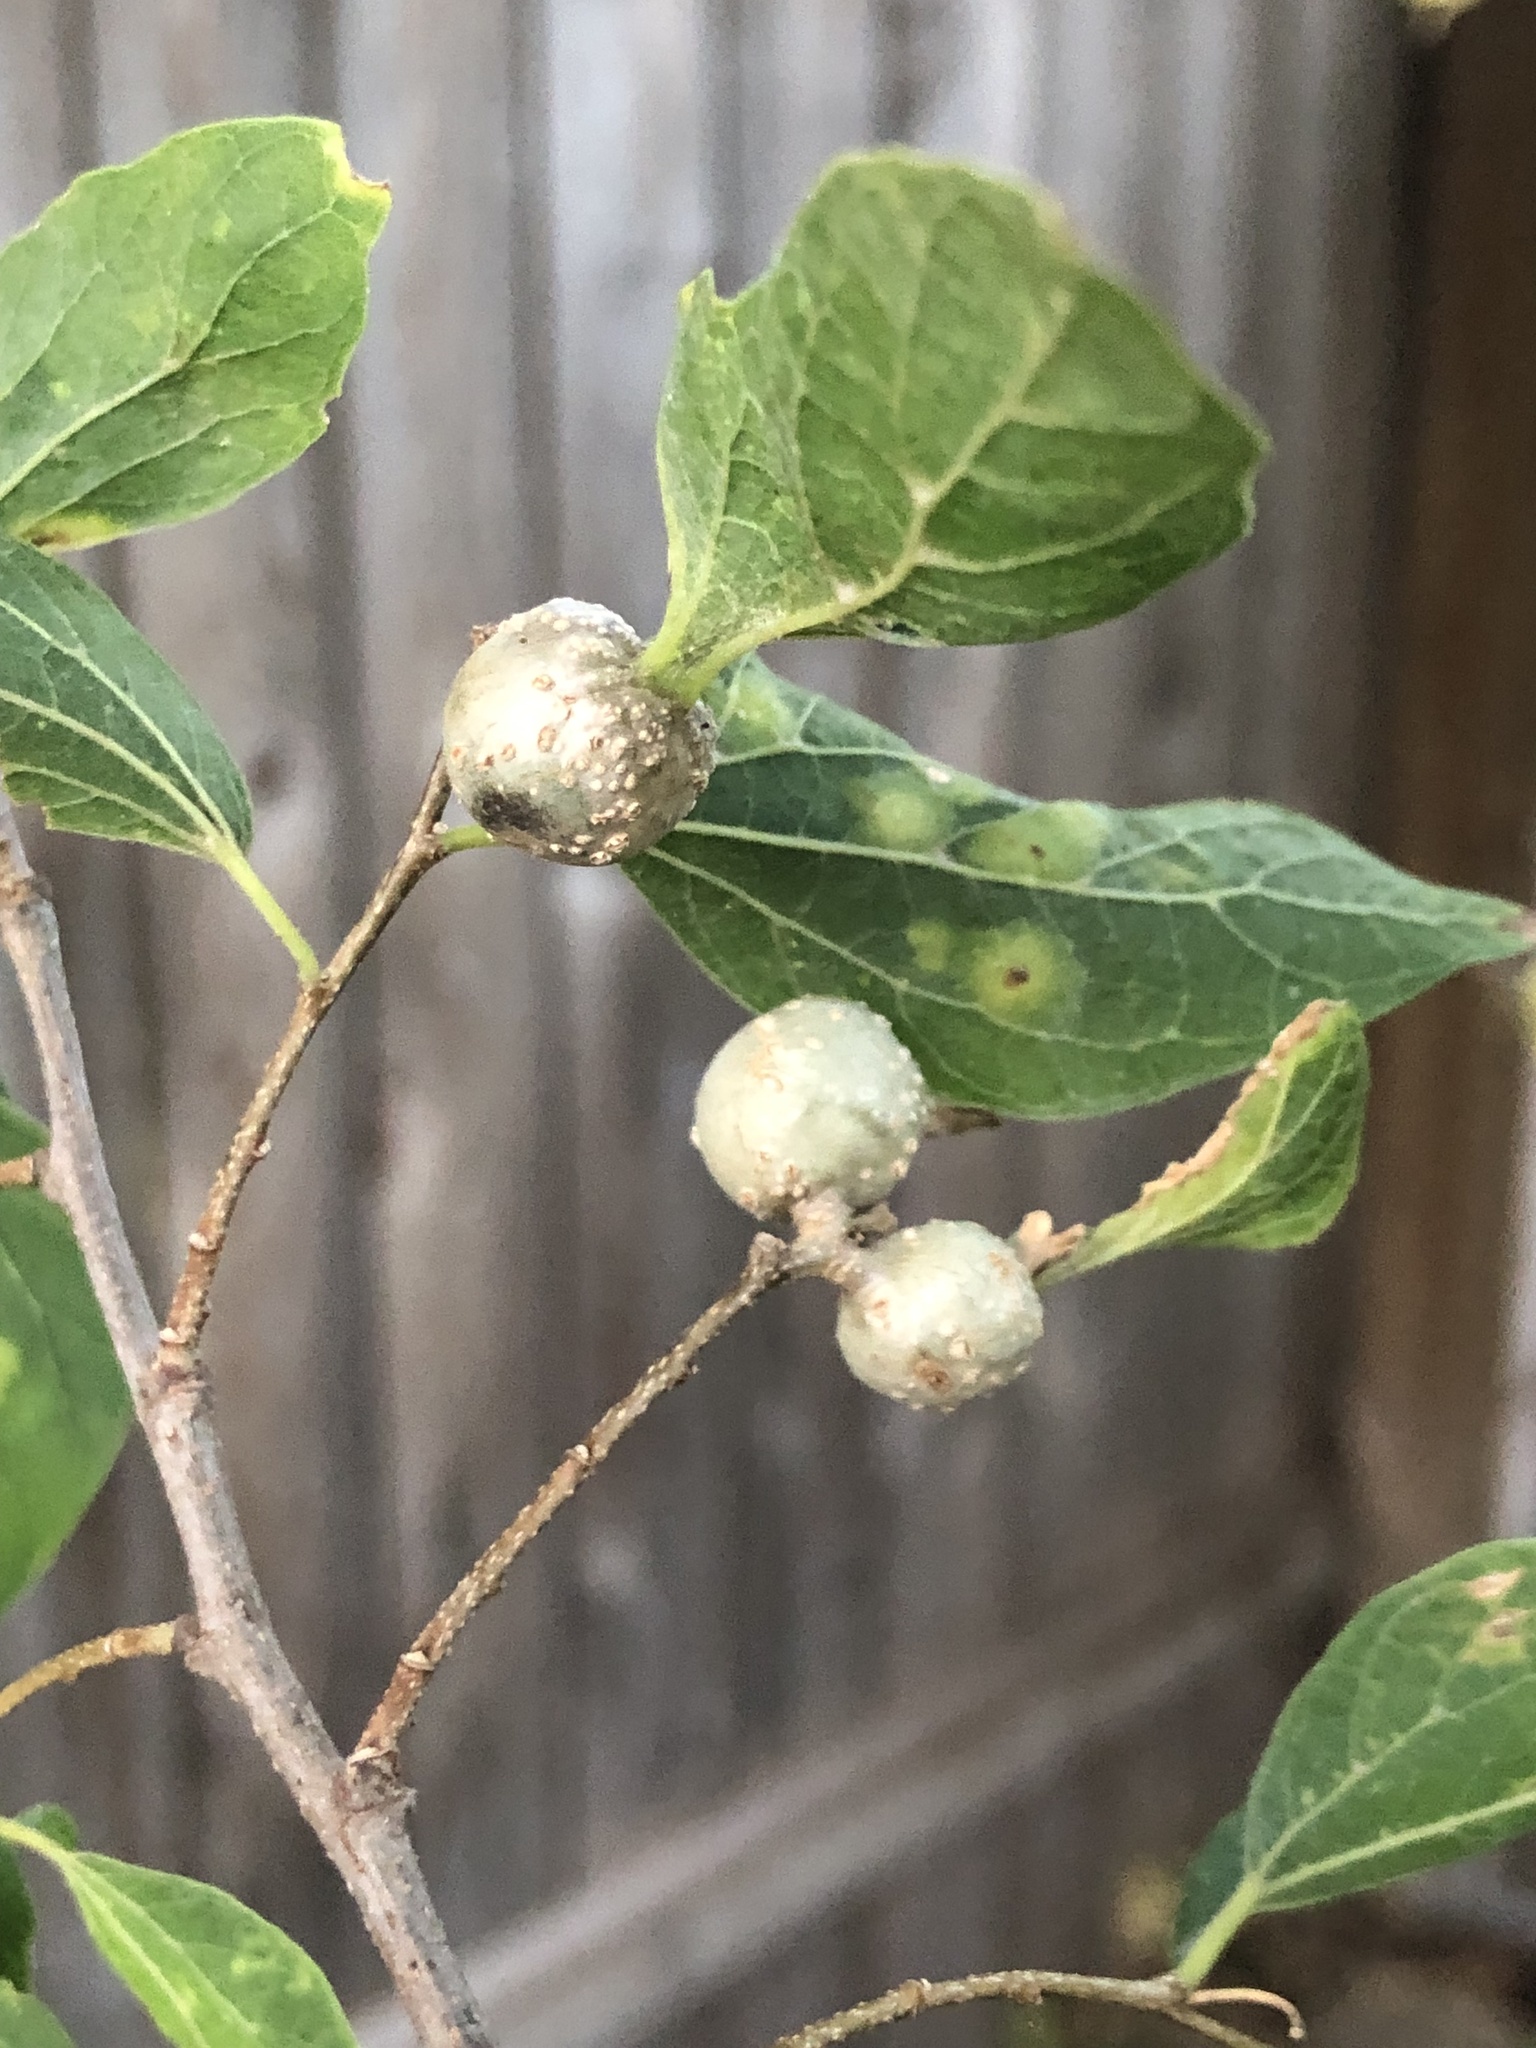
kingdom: Animalia
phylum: Arthropoda
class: Insecta
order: Hemiptera
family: Aphalaridae
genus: Pachypsylla
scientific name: Pachypsylla venusta
